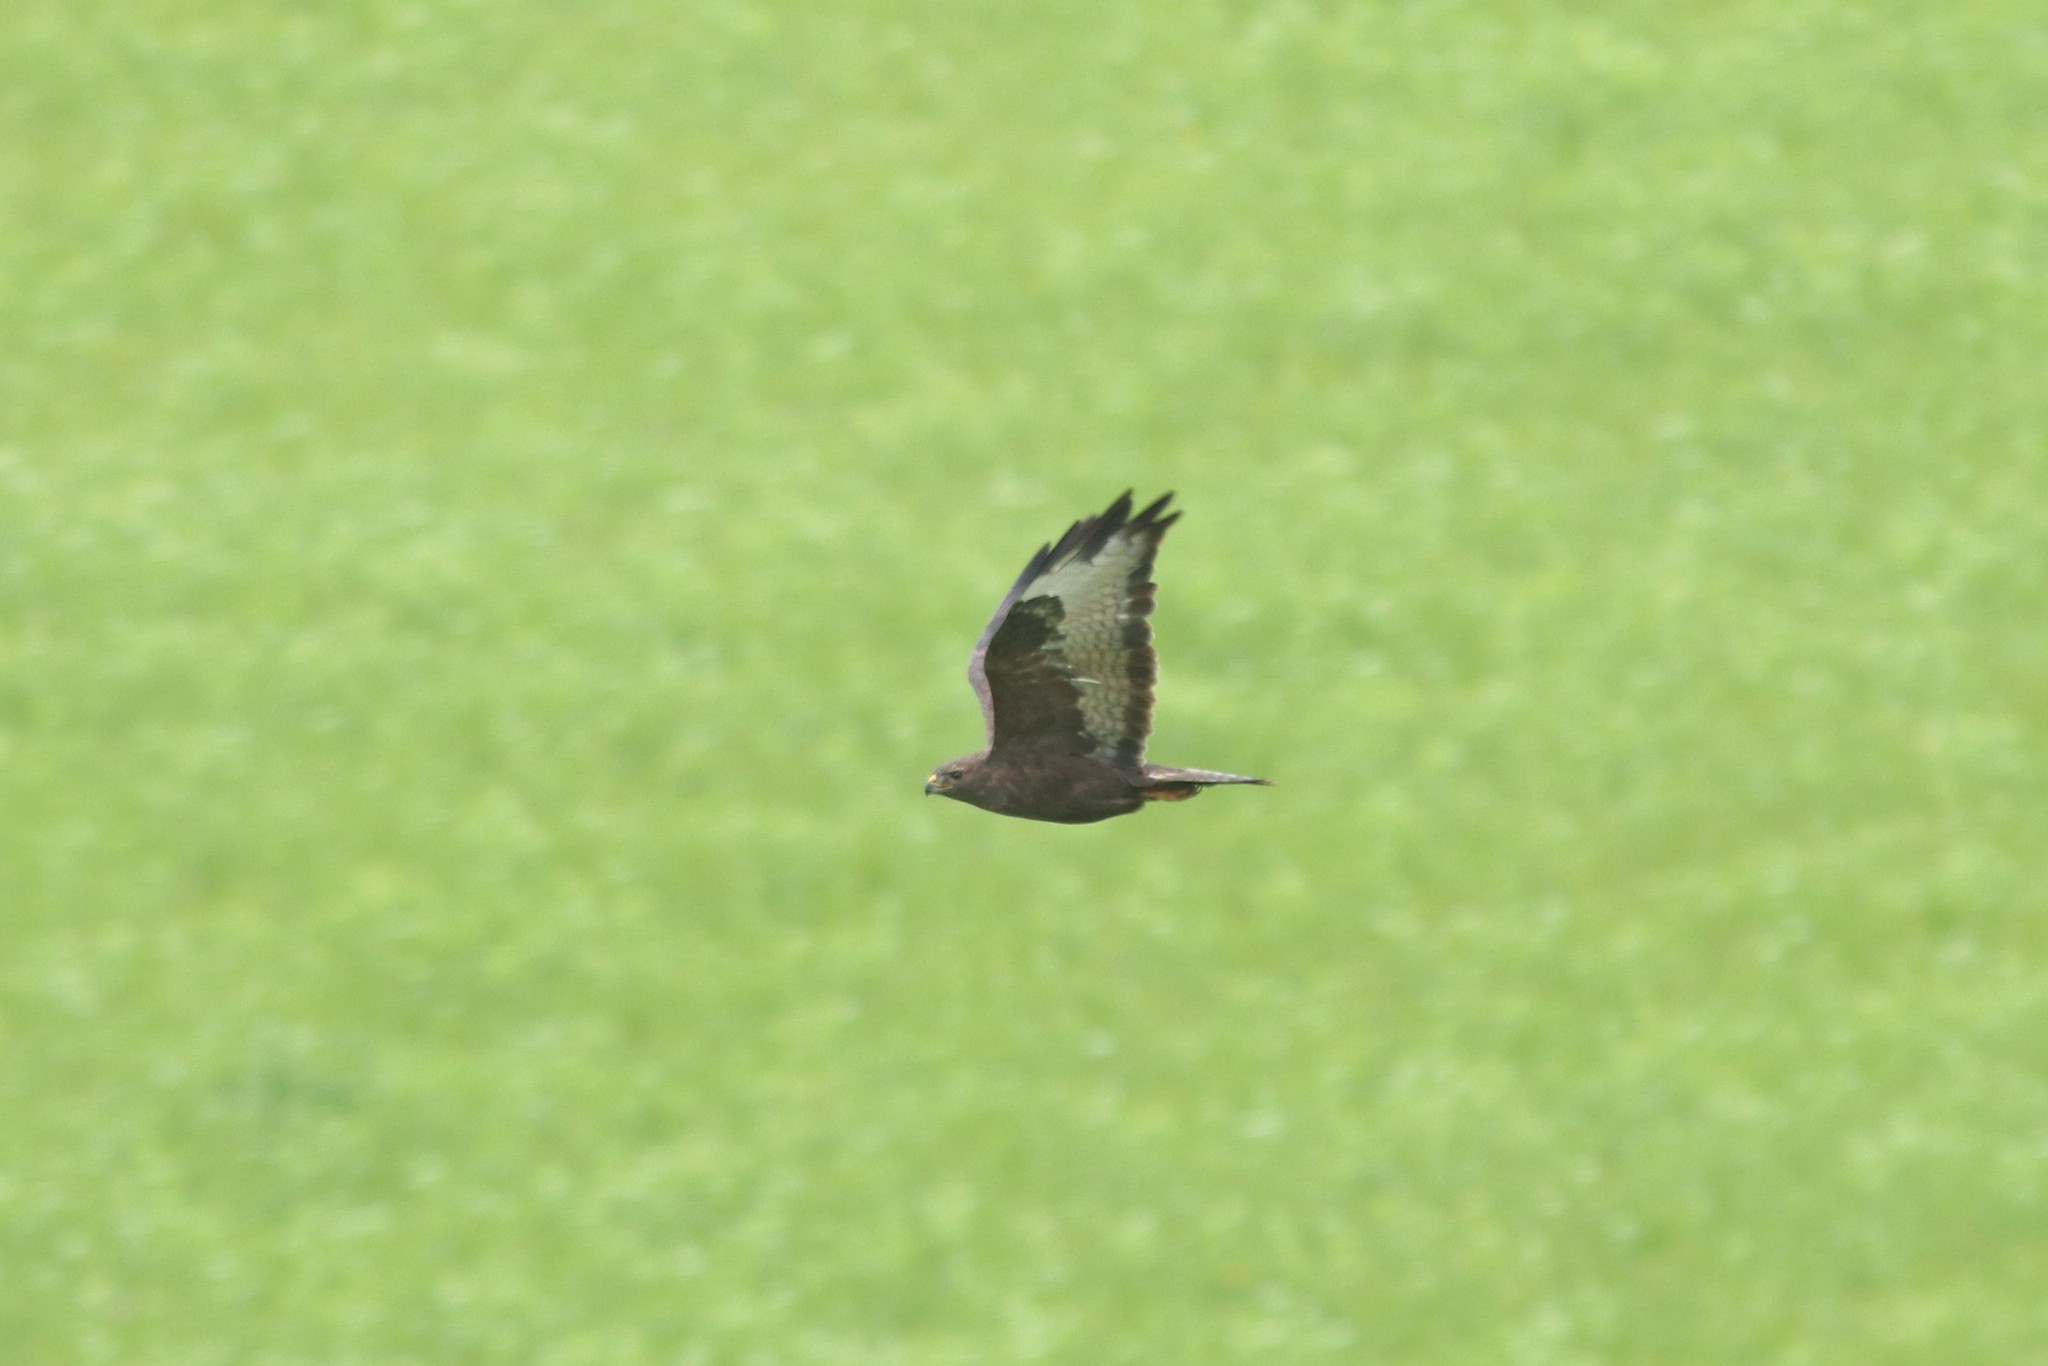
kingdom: Animalia
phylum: Chordata
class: Aves
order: Accipitriformes
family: Accipitridae
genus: Buteo
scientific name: Buteo buteo
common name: Common buzzard
